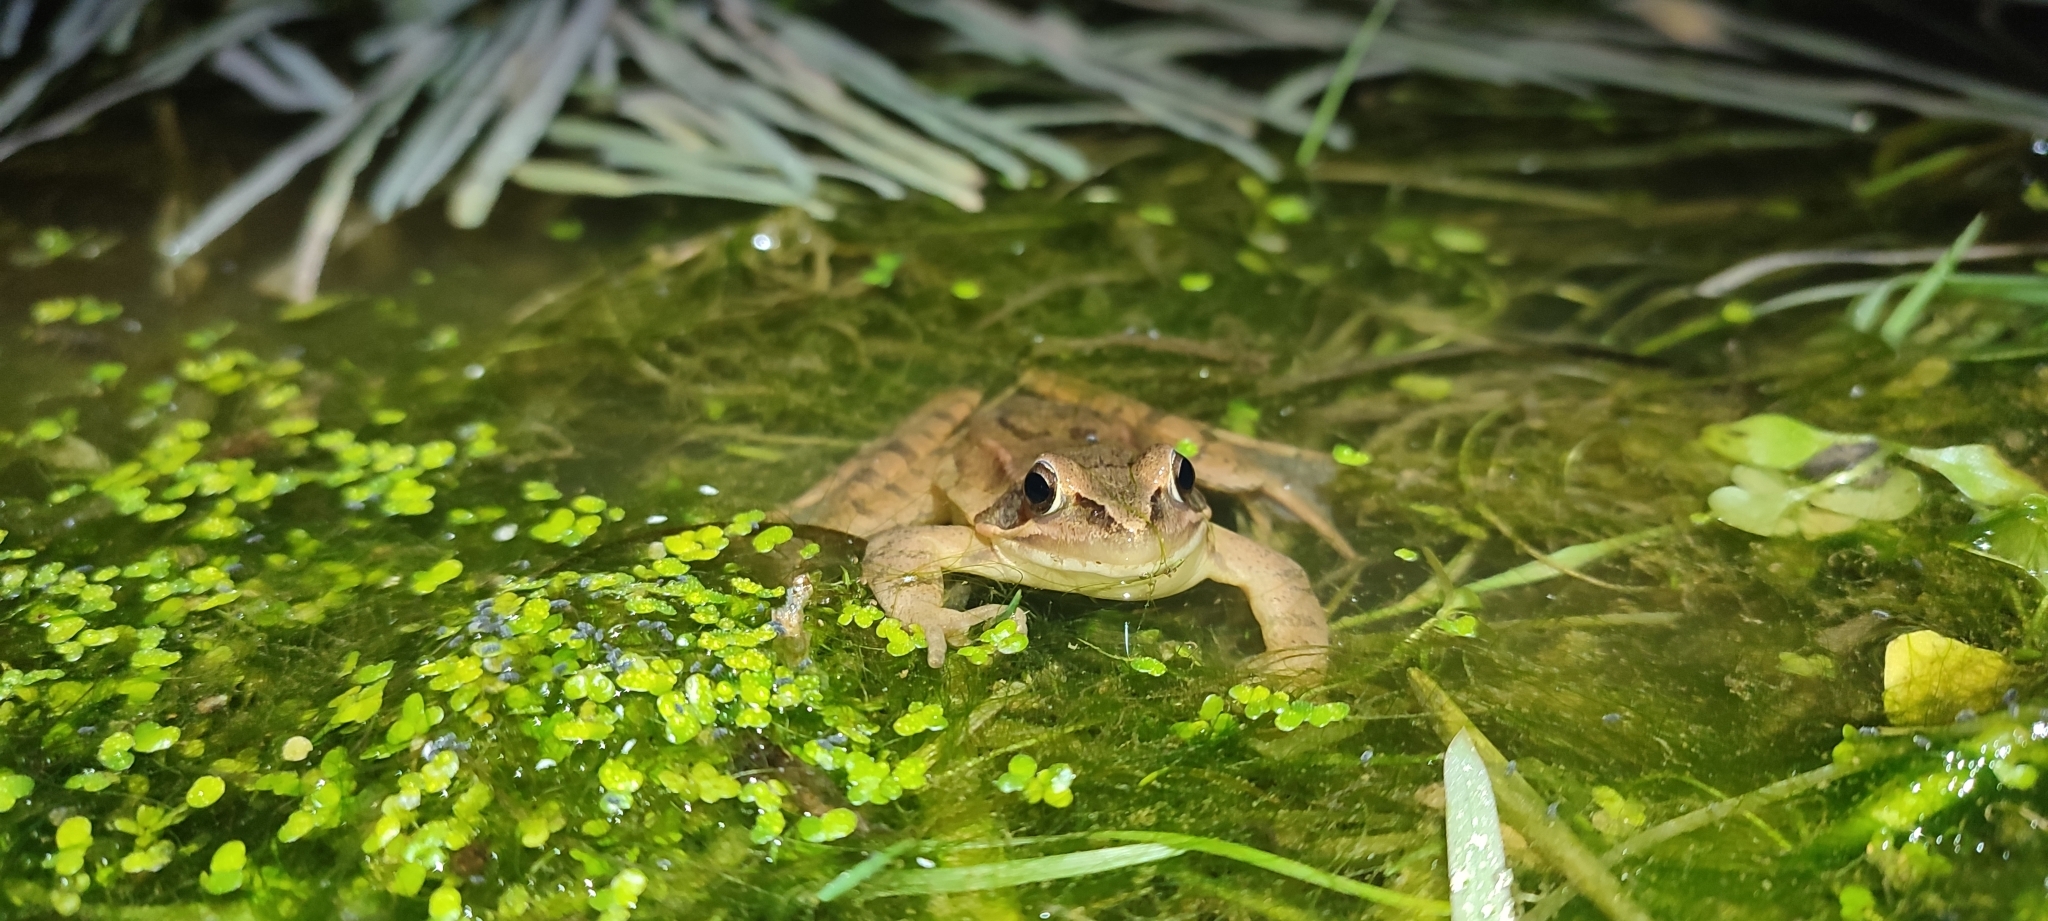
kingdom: Animalia
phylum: Chordata
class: Amphibia
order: Anura
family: Ranidae
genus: Rana
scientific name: Rana dalmatina
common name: Agile frog
